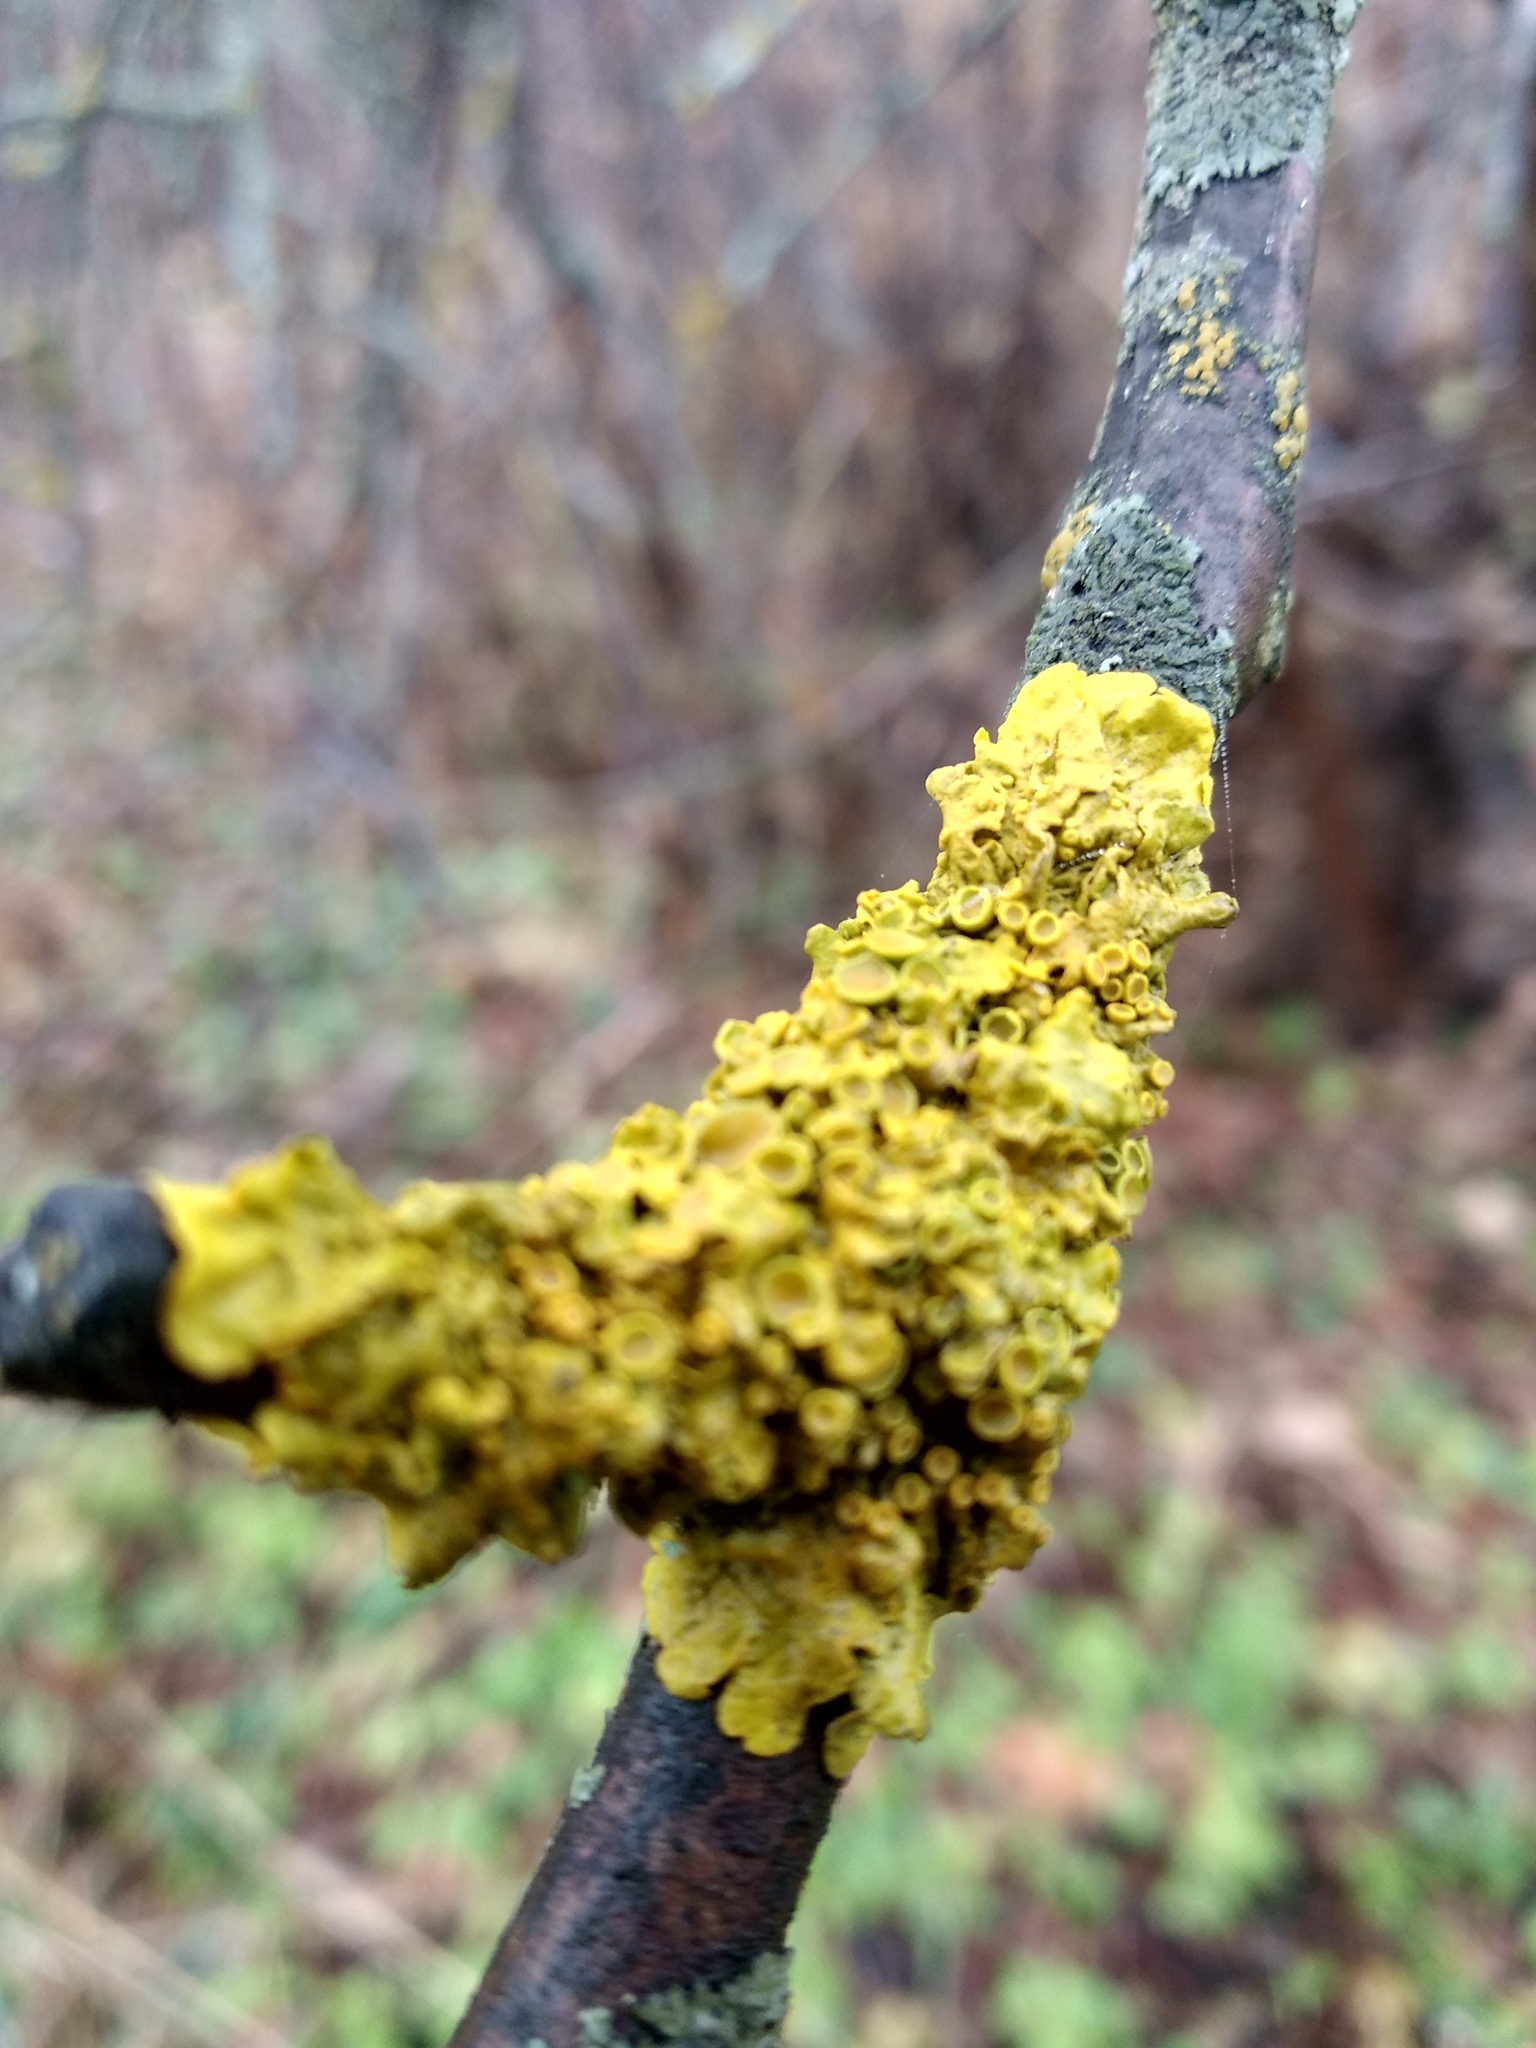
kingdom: Fungi
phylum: Ascomycota
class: Lecanoromycetes
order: Teloschistales
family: Teloschistaceae
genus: Xanthoria
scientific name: Xanthoria parietina
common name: Common orange lichen
